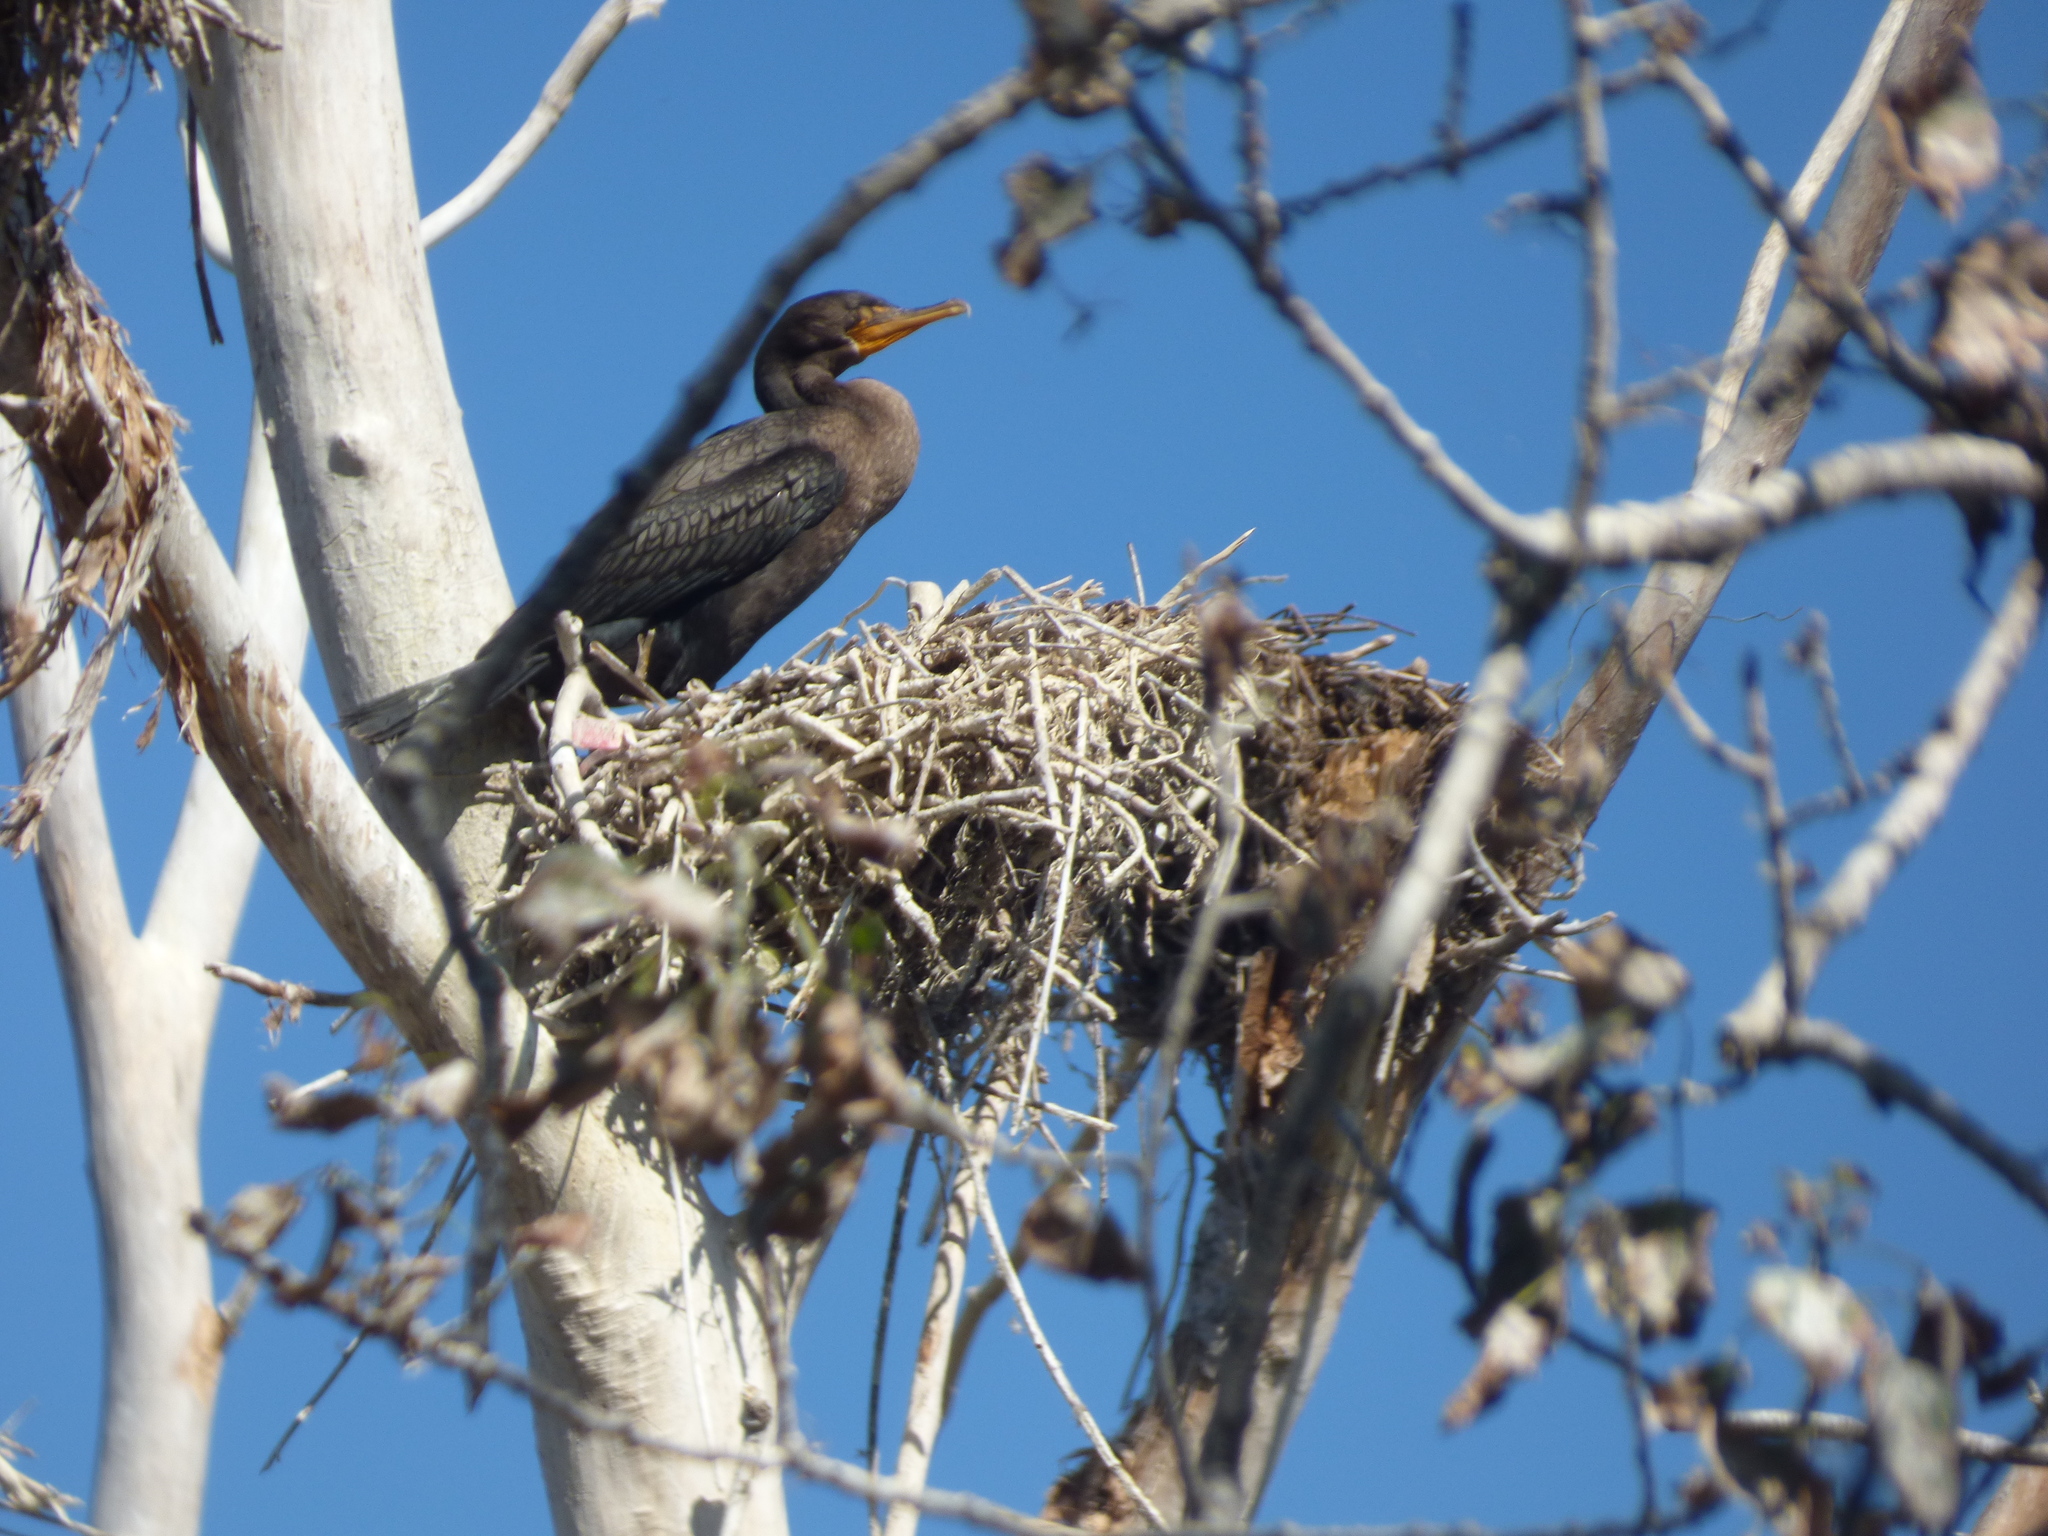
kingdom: Animalia
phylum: Chordata
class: Aves
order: Suliformes
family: Phalacrocoracidae
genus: Phalacrocorax
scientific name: Phalacrocorax auritus
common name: Double-crested cormorant
